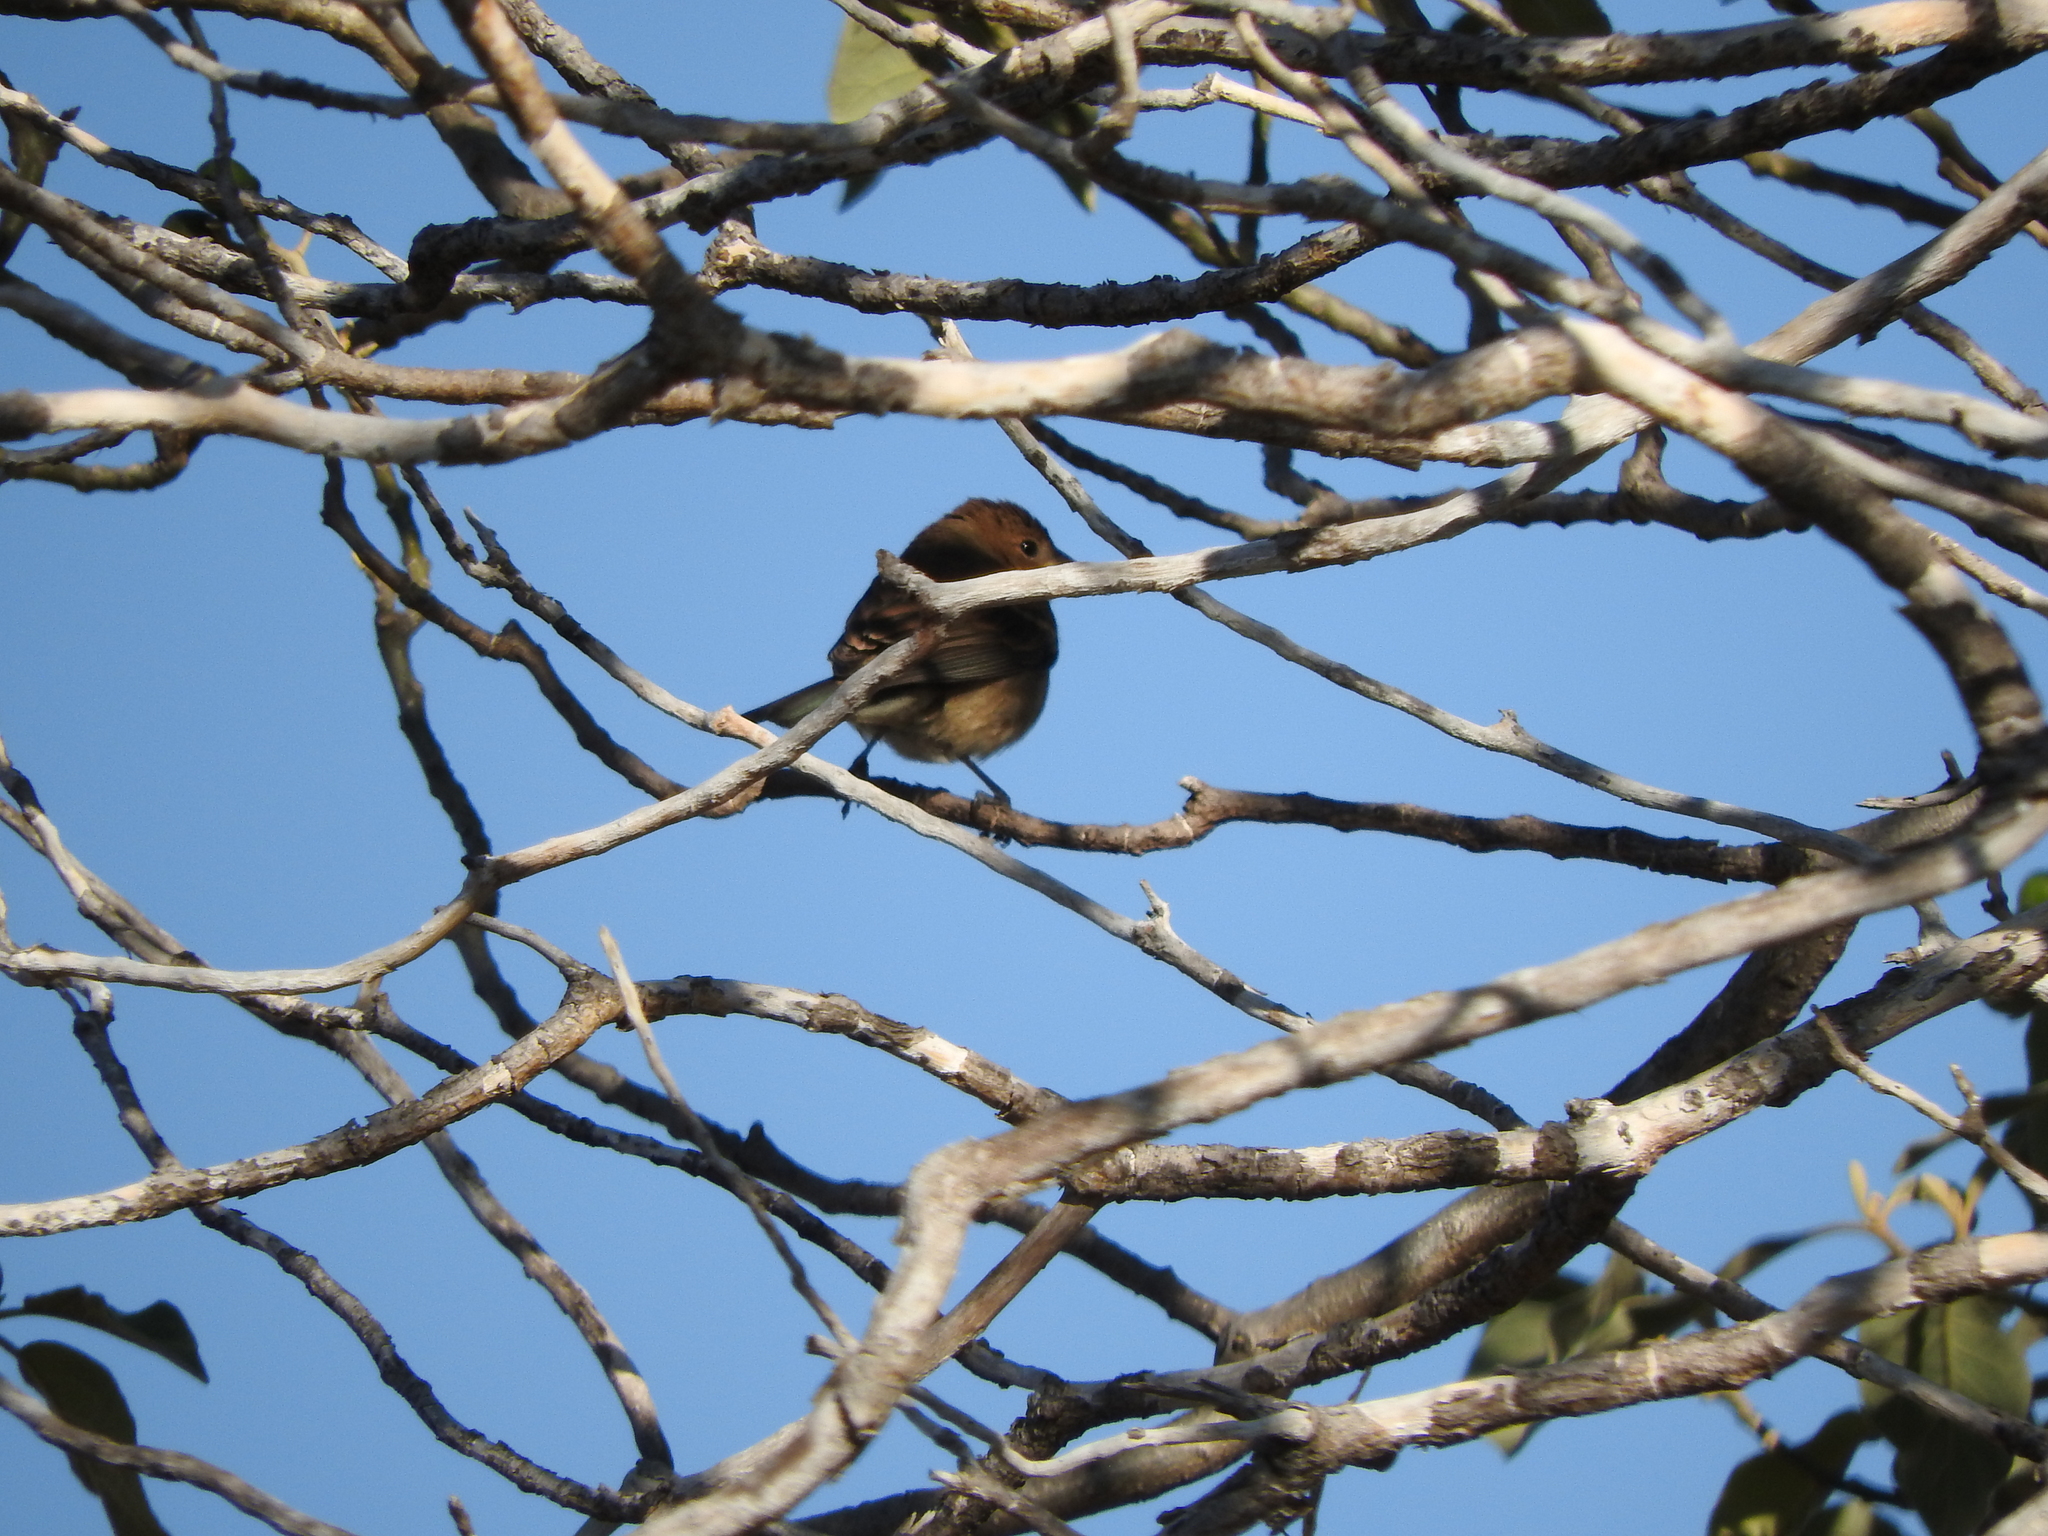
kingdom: Animalia
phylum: Chordata
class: Aves
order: Passeriformes
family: Cardinalidae
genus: Passerina
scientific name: Passerina versicolor
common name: Varied bunting
